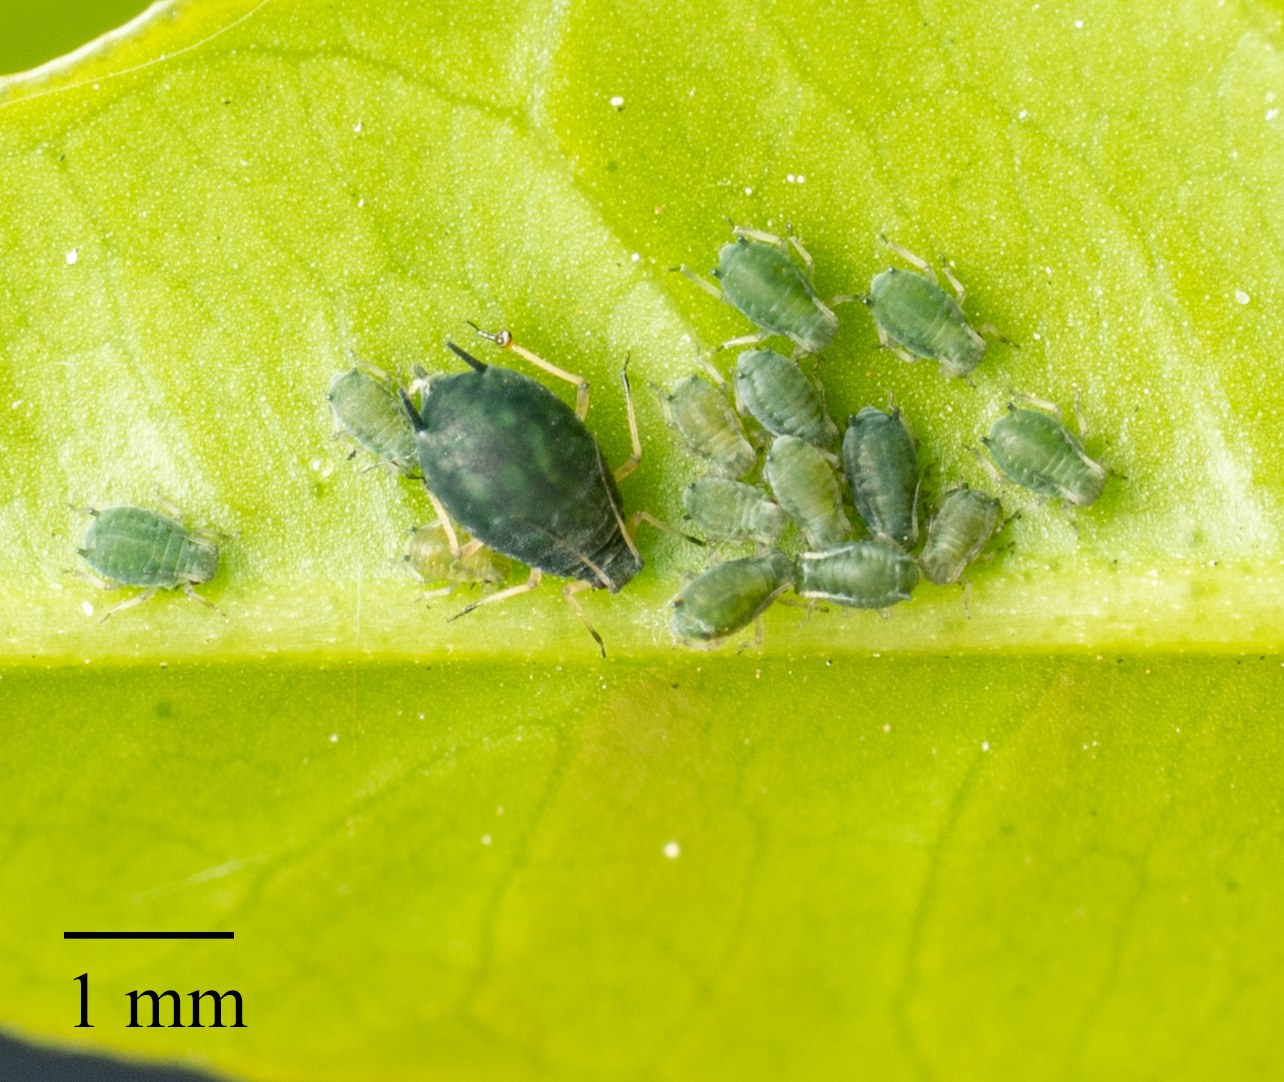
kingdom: Animalia
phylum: Arthropoda
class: Insecta
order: Hemiptera
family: Aphididae
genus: Aphis
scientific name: Aphis gossypii
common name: Melon aphid
